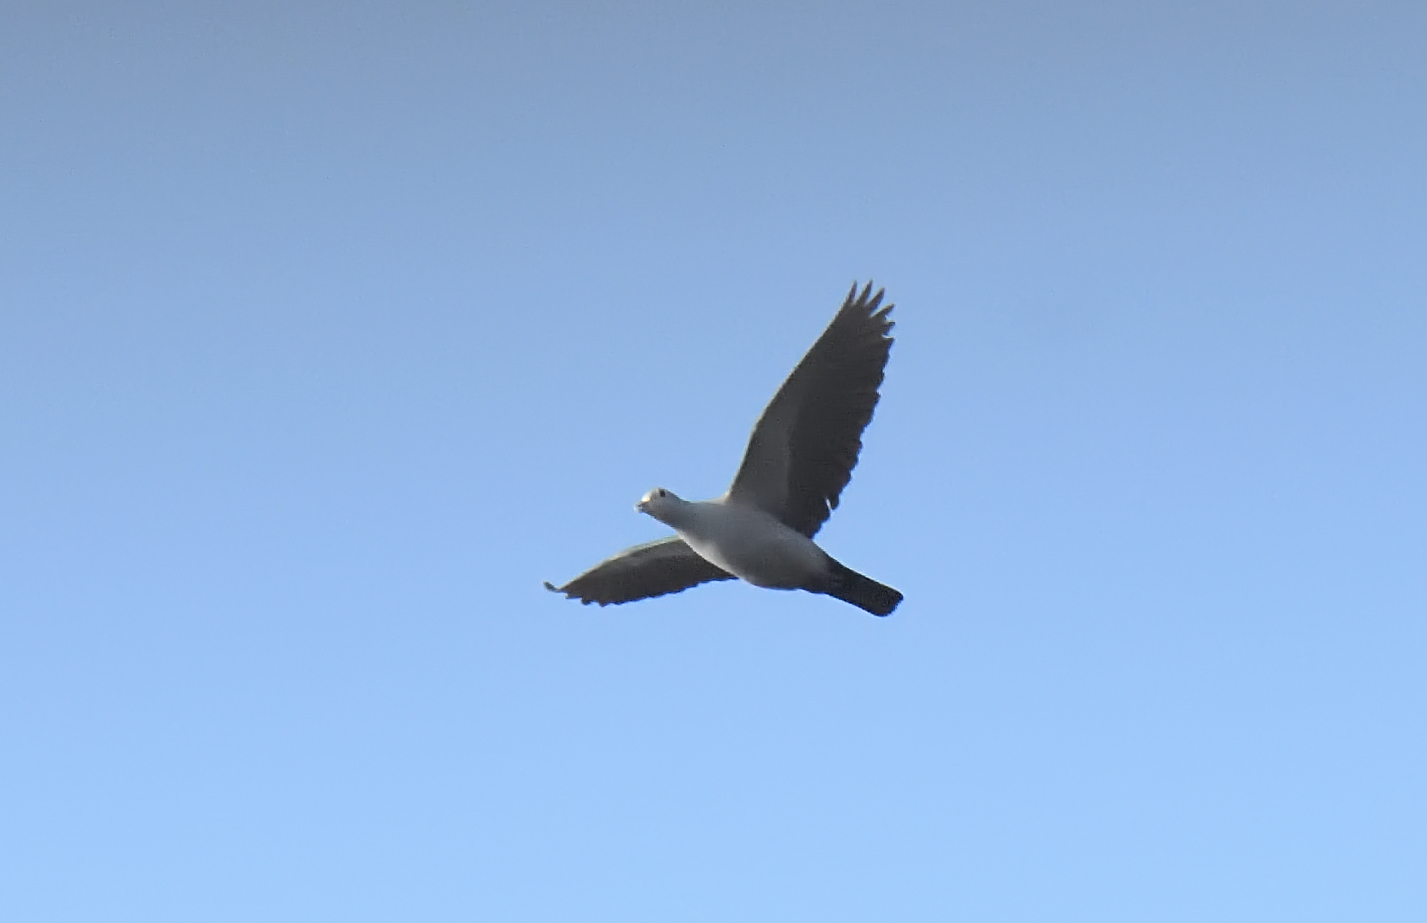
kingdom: Animalia
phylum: Chordata
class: Aves
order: Columbiformes
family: Columbidae
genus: Ducula
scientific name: Ducula aenea
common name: Green imperial pigeon
